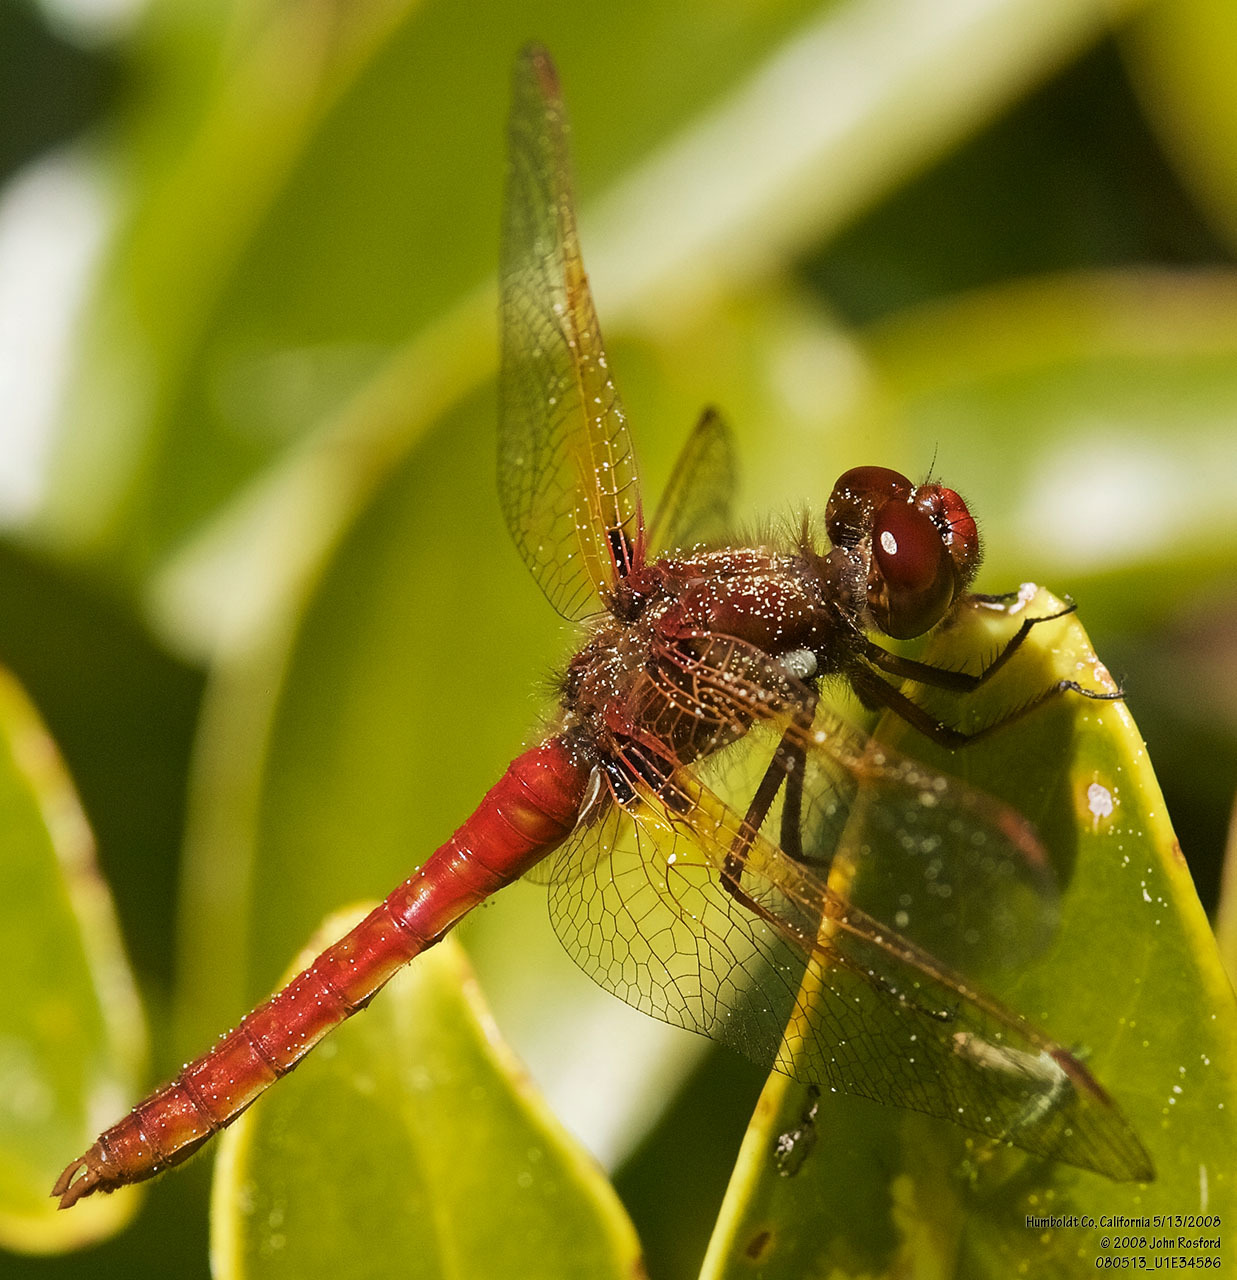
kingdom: Animalia
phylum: Arthropoda
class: Insecta
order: Odonata
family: Libellulidae
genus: Sympetrum
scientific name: Sympetrum illotum
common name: Cardinal meadowhawk
